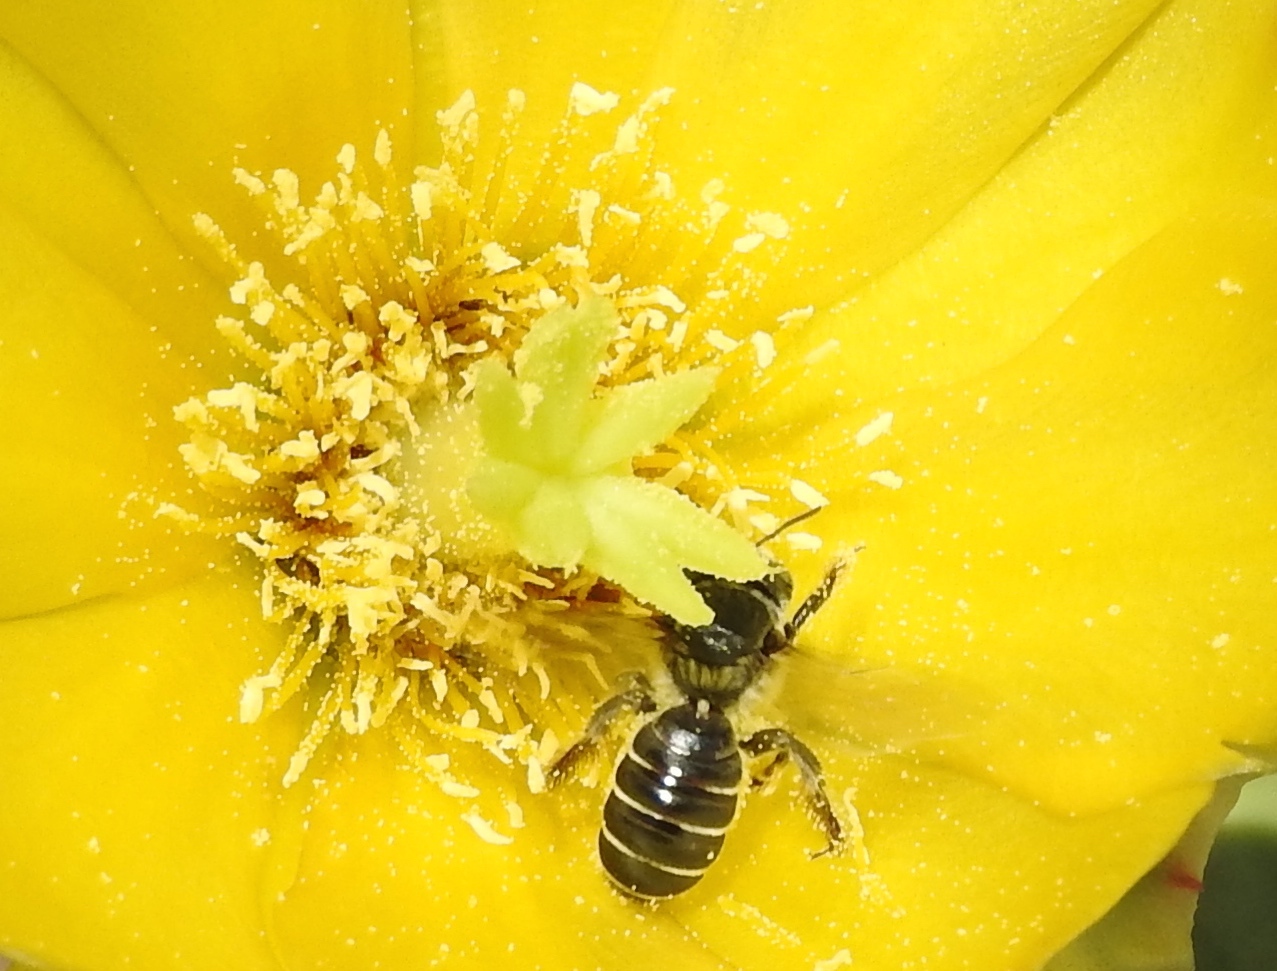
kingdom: Animalia
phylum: Arthropoda
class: Insecta
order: Hymenoptera
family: Megachilidae
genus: Lithurgopsis
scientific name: Lithurgopsis
